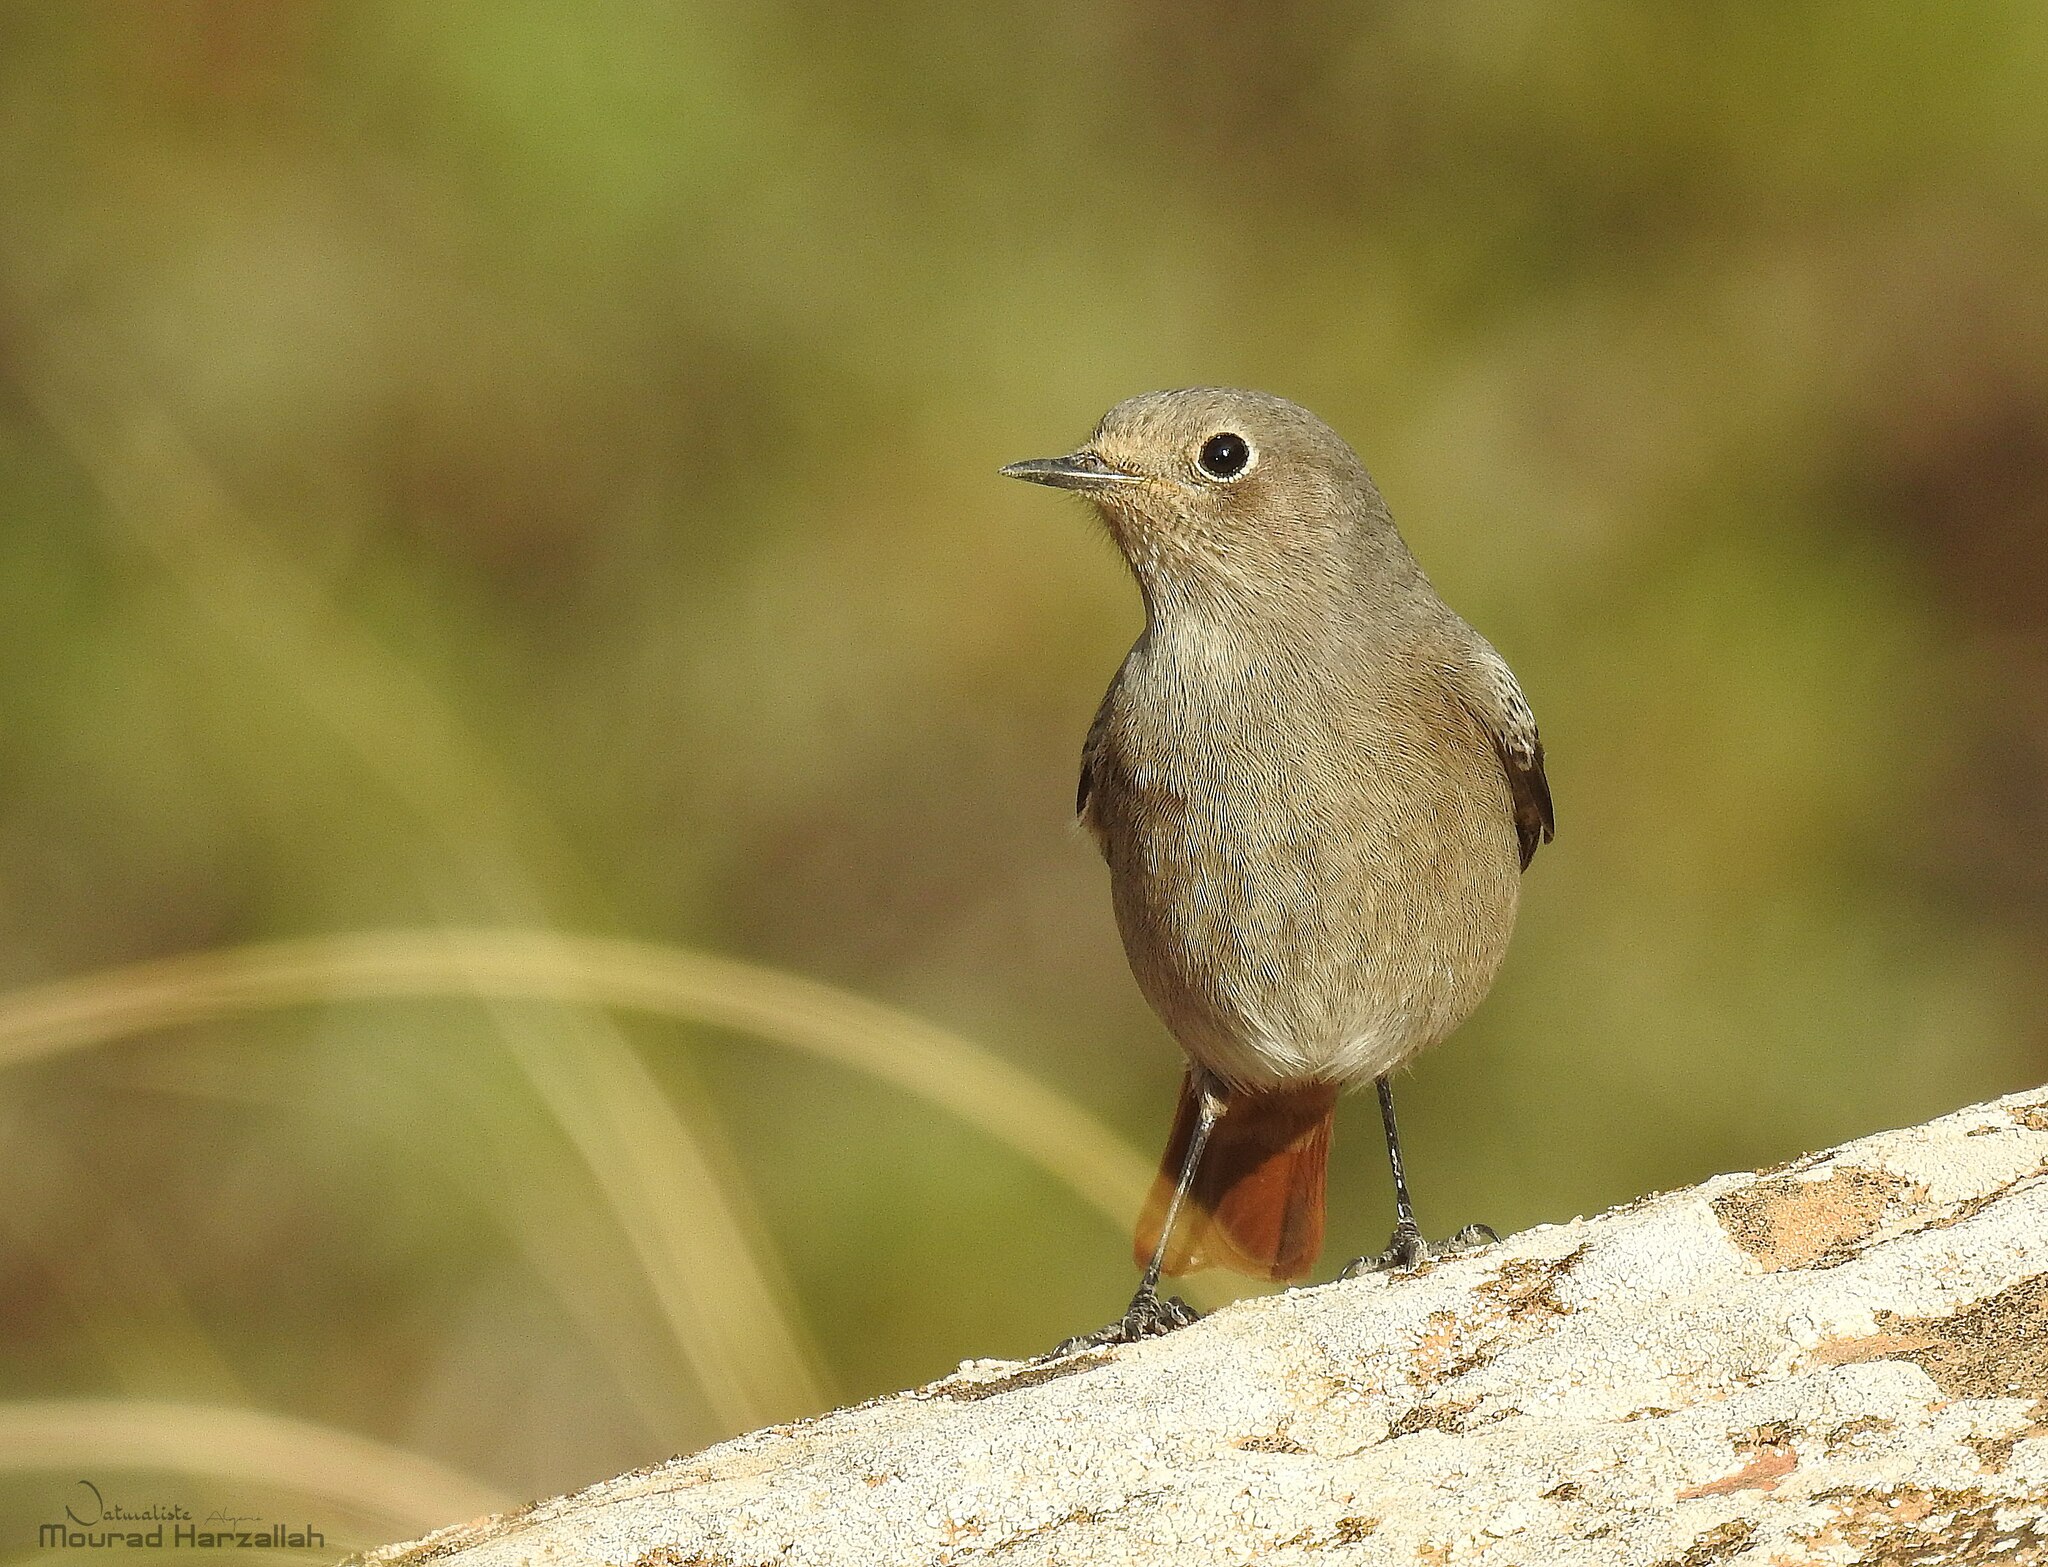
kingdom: Animalia
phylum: Chordata
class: Aves
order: Passeriformes
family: Muscicapidae
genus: Phoenicurus
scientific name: Phoenicurus ochruros
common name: Black redstart
